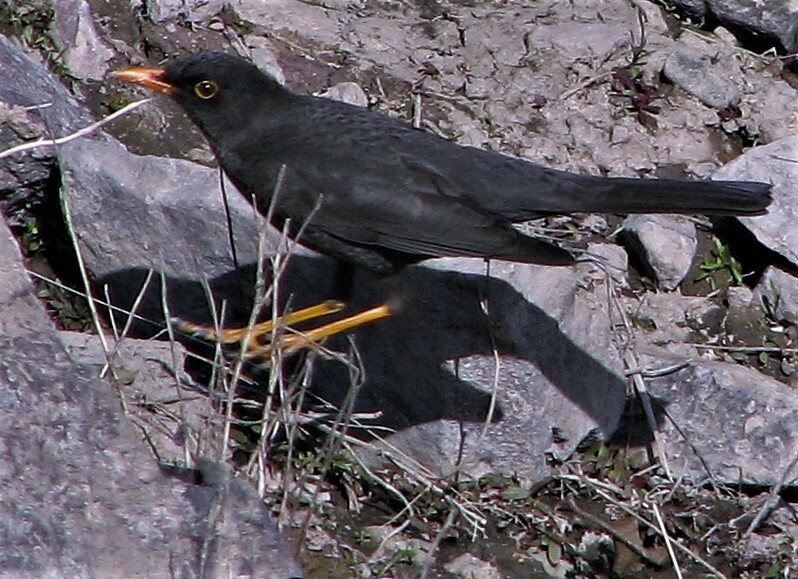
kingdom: Animalia
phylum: Chordata
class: Aves
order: Passeriformes
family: Turdidae
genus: Turdus
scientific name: Turdus chiguanco
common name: Chiguanco thrush
